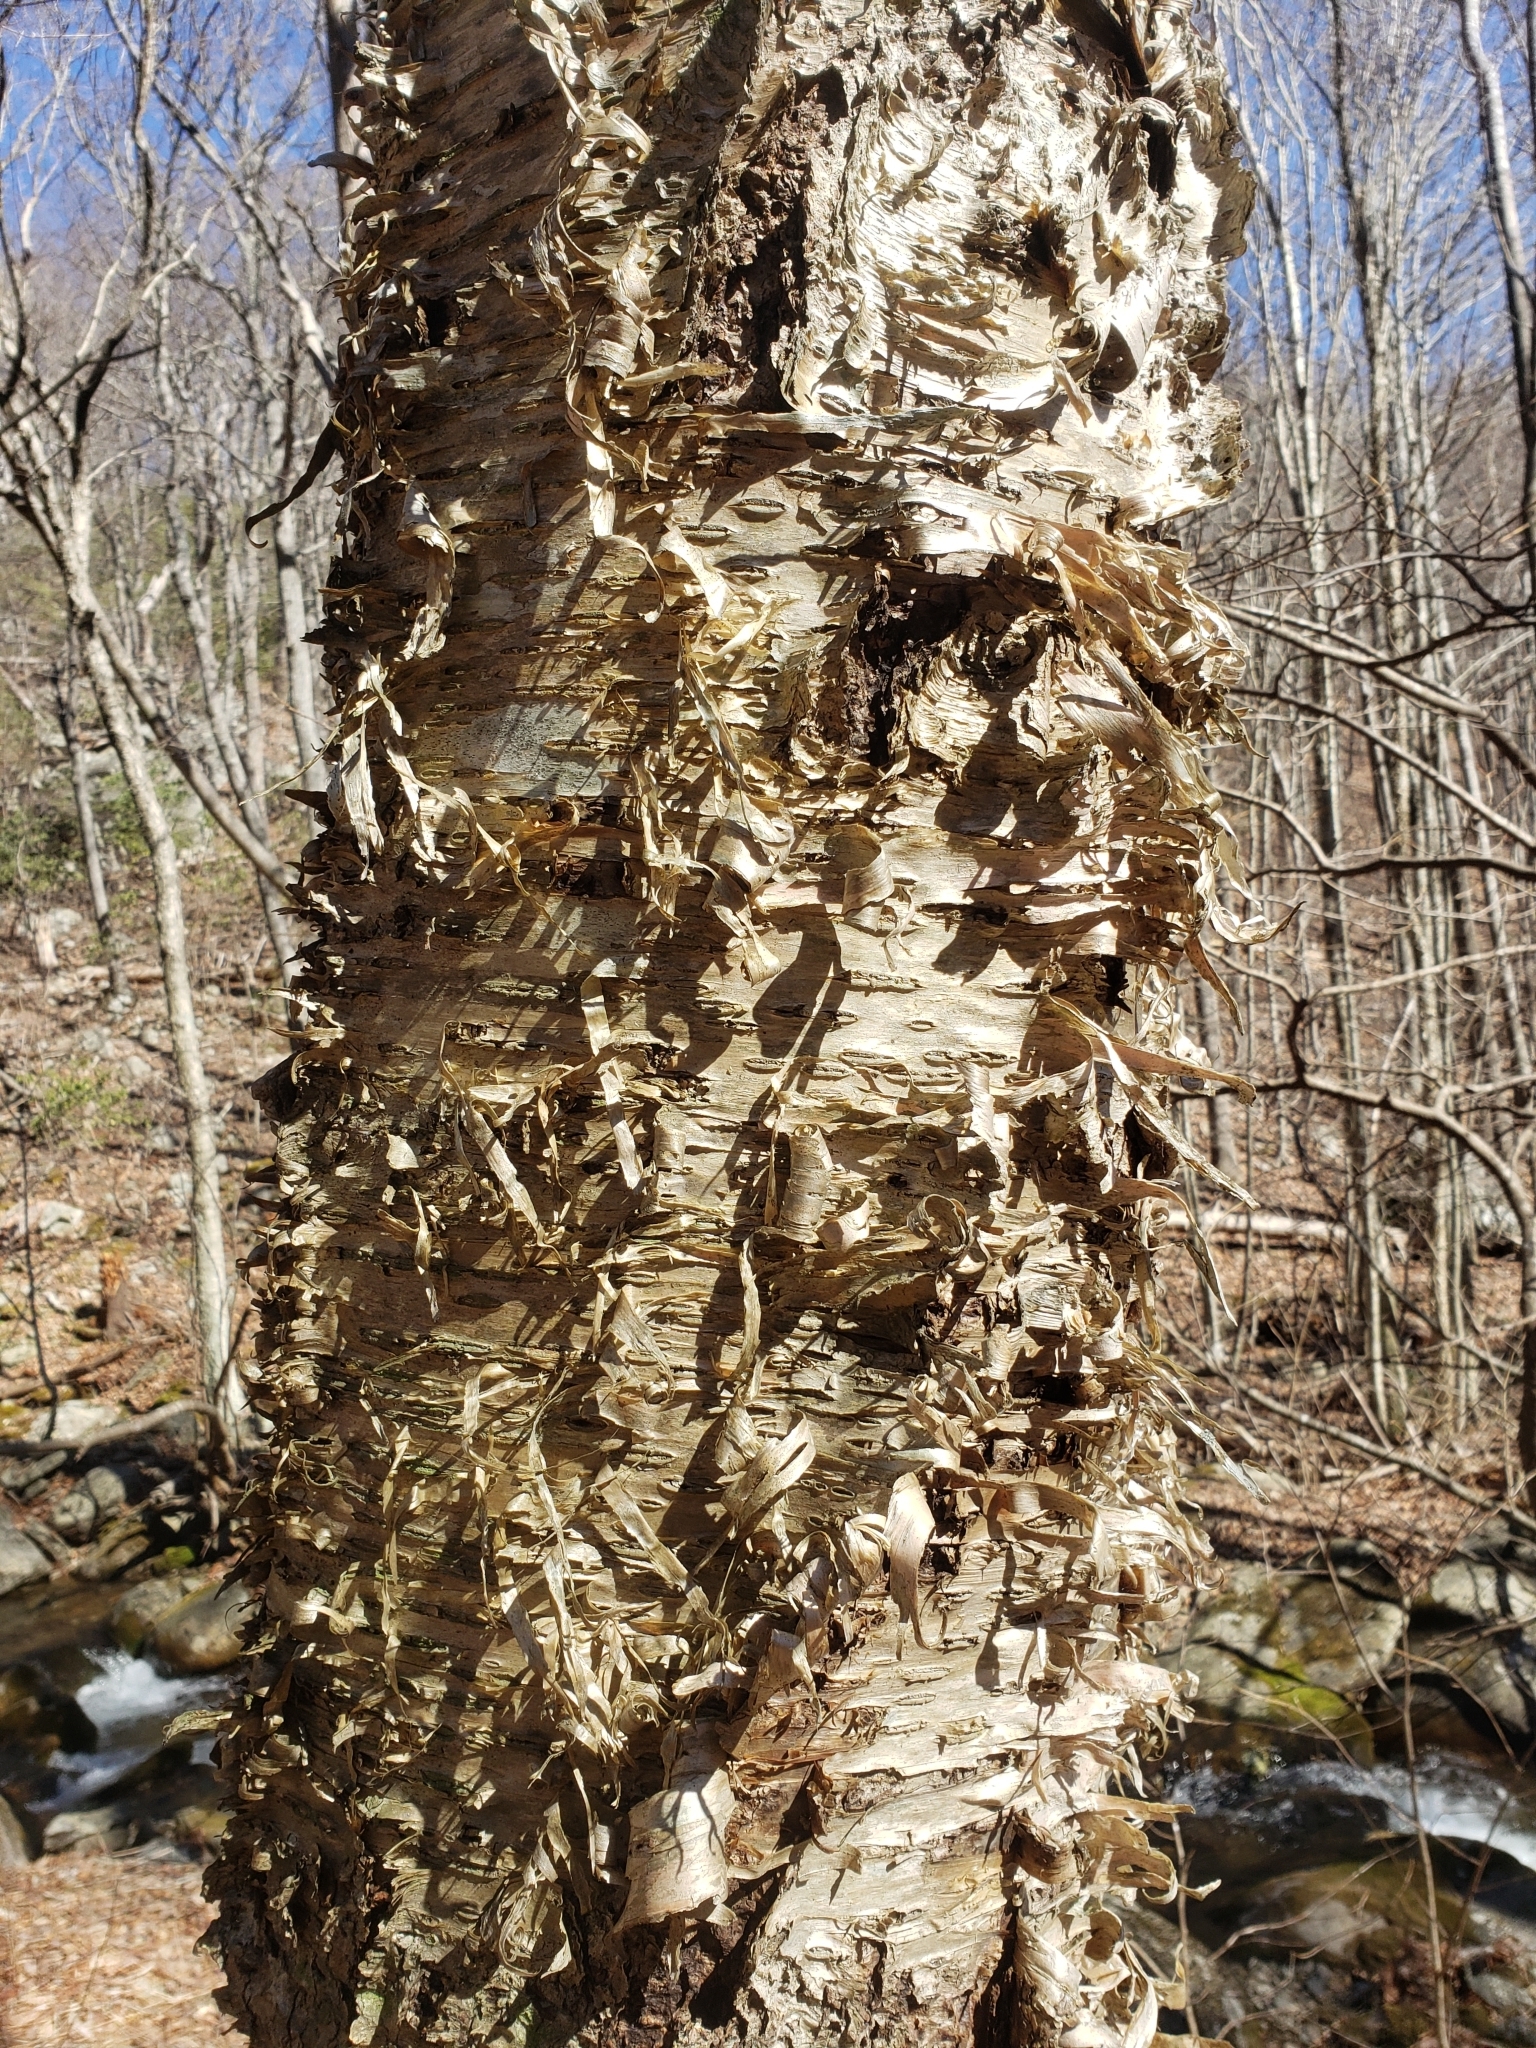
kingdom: Plantae
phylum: Tracheophyta
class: Magnoliopsida
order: Fagales
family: Betulaceae
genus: Betula
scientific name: Betula alleghaniensis
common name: Yellow birch
